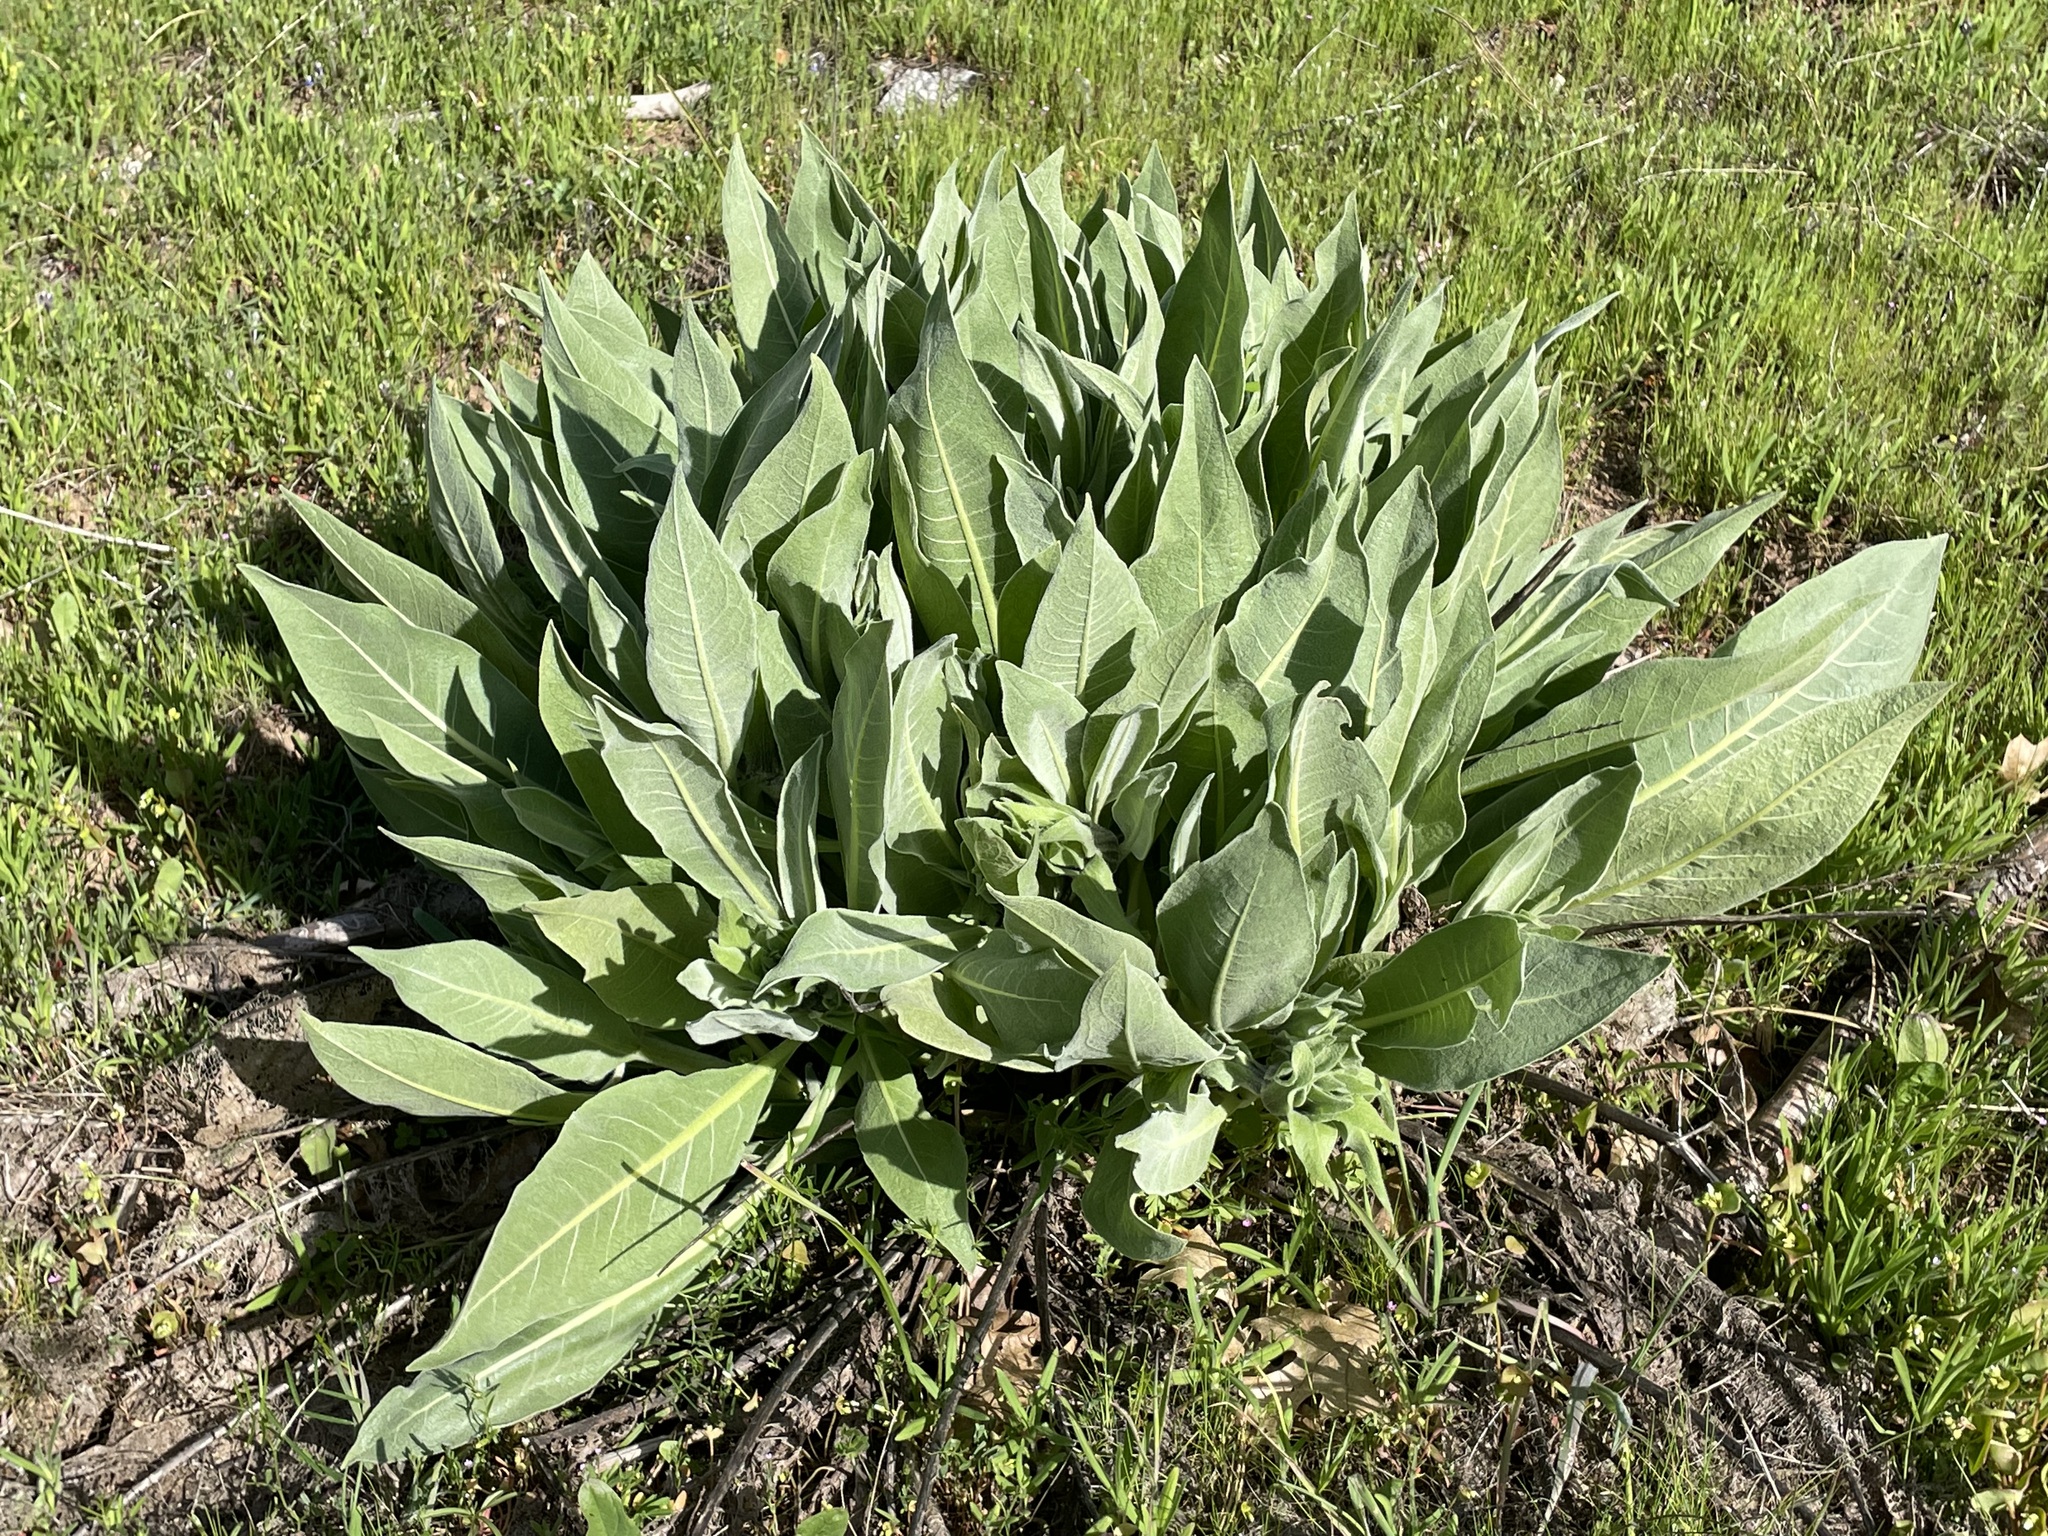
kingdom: Plantae
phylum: Tracheophyta
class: Magnoliopsida
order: Asterales
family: Asteraceae
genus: Wyethia
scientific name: Wyethia helenioides
